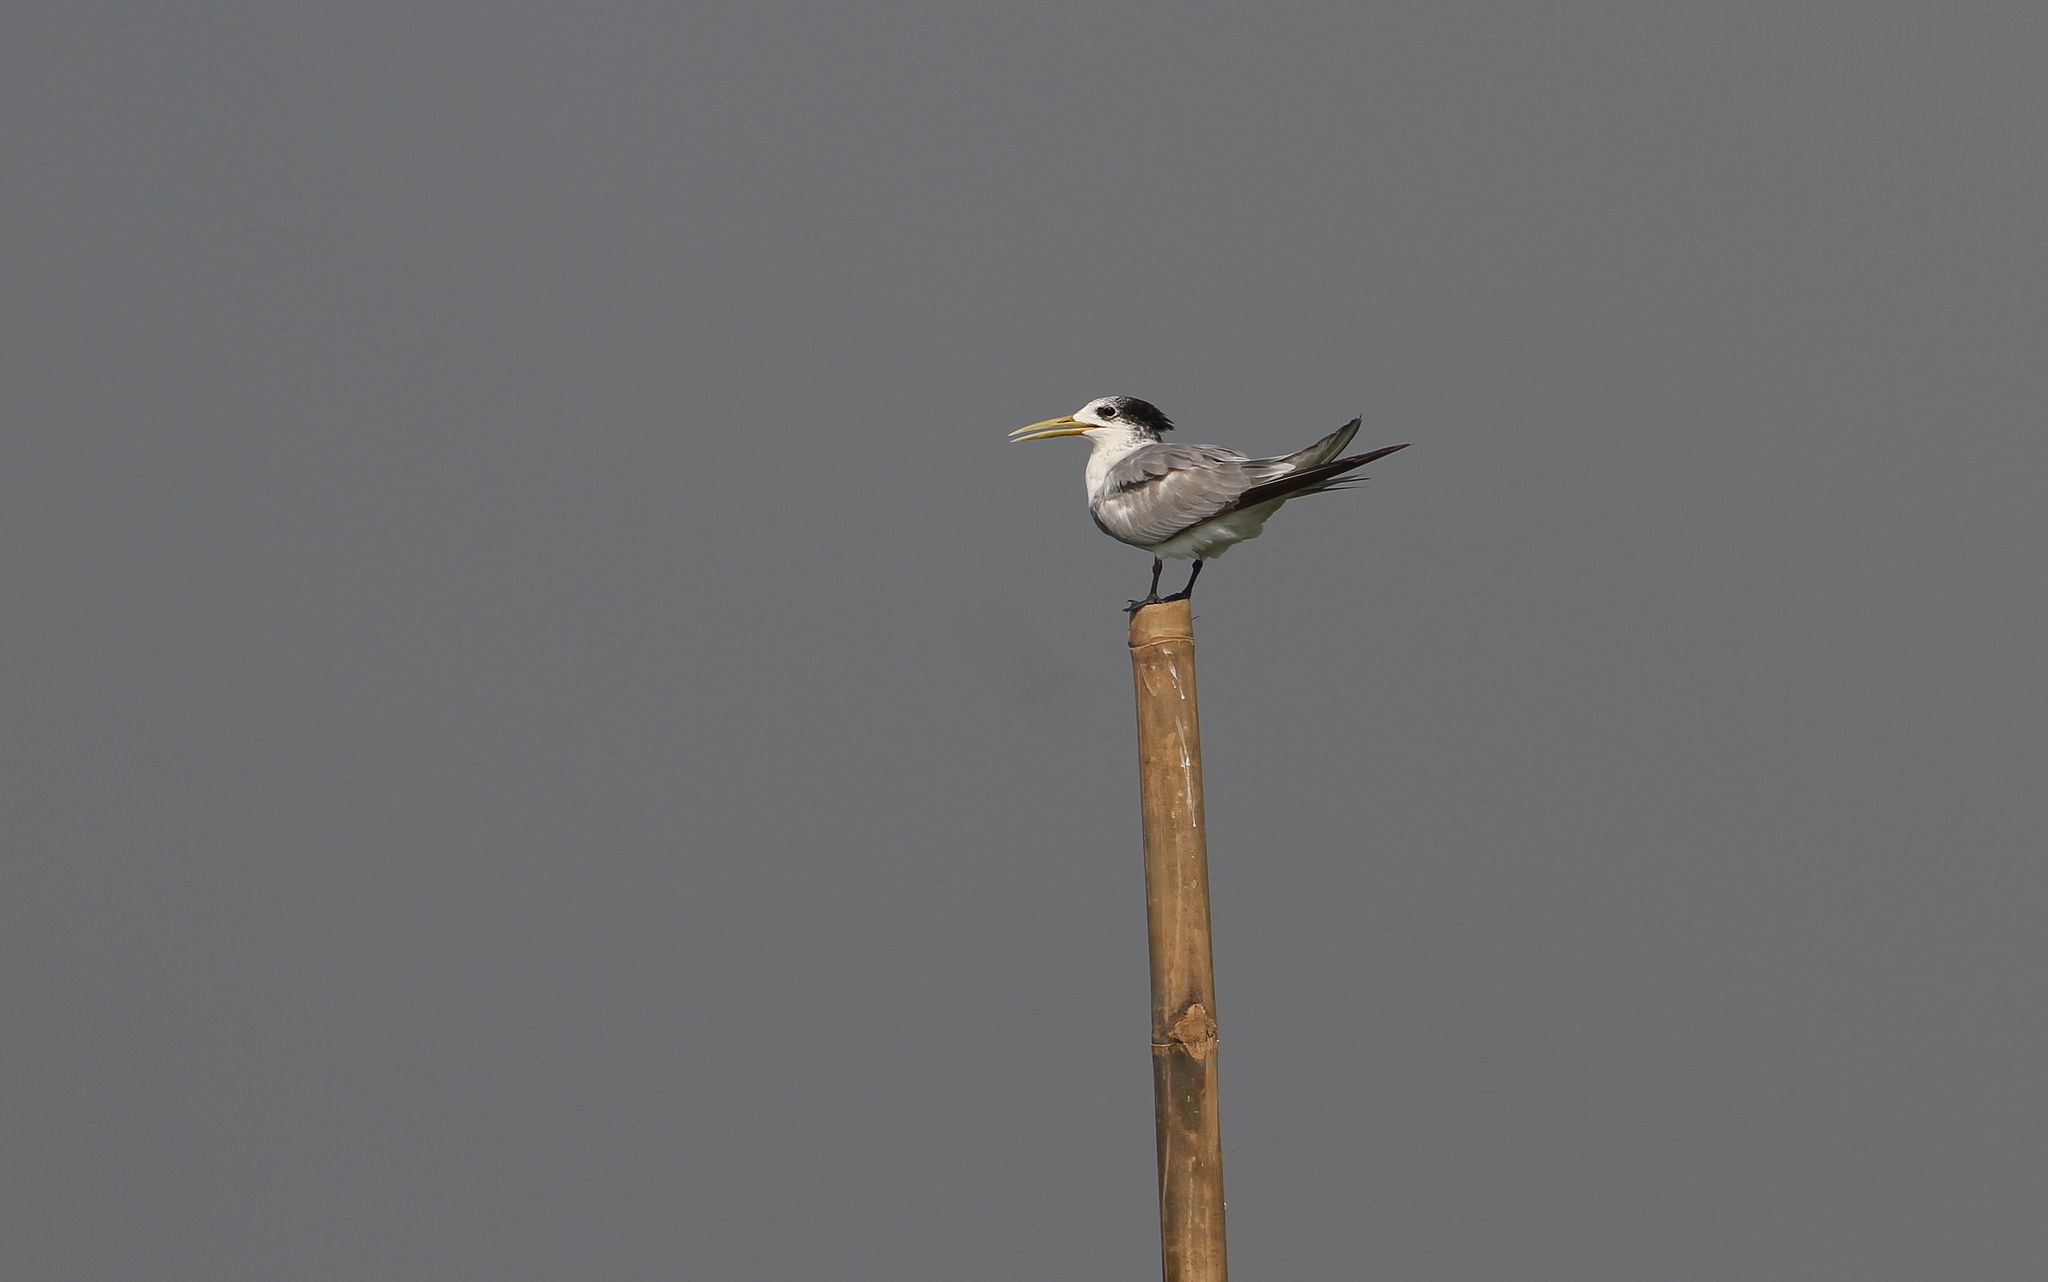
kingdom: Animalia
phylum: Chordata
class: Aves
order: Charadriiformes
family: Laridae
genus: Thalasseus
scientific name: Thalasseus bergii
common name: Greater crested tern
